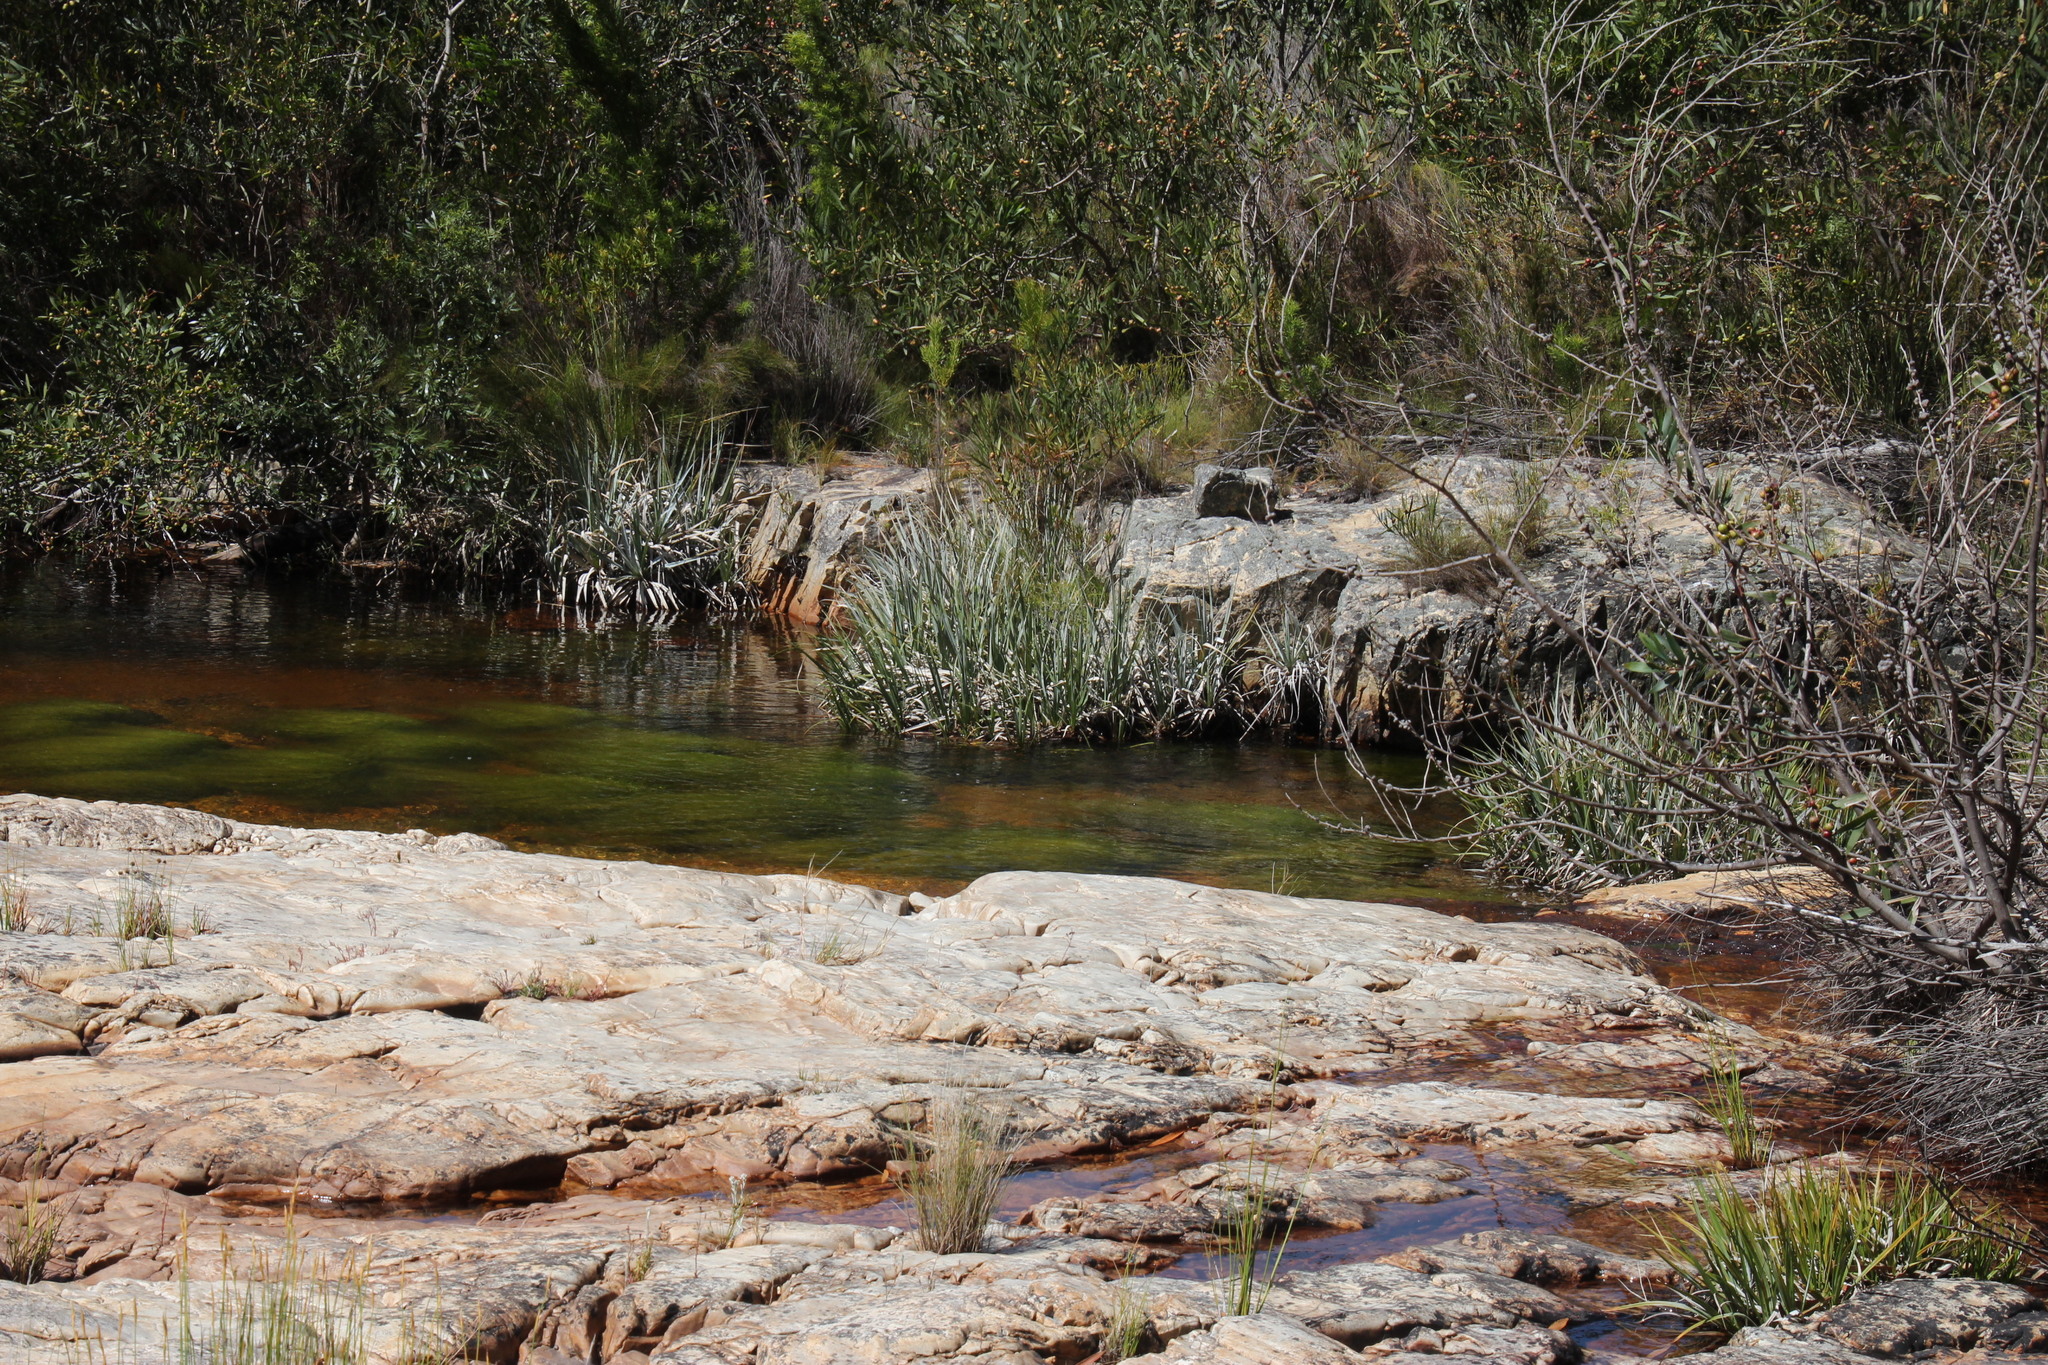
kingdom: Plantae
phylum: Tracheophyta
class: Liliopsida
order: Poales
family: Thurniaceae
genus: Prionium
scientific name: Prionium serratum
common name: Palmiet
